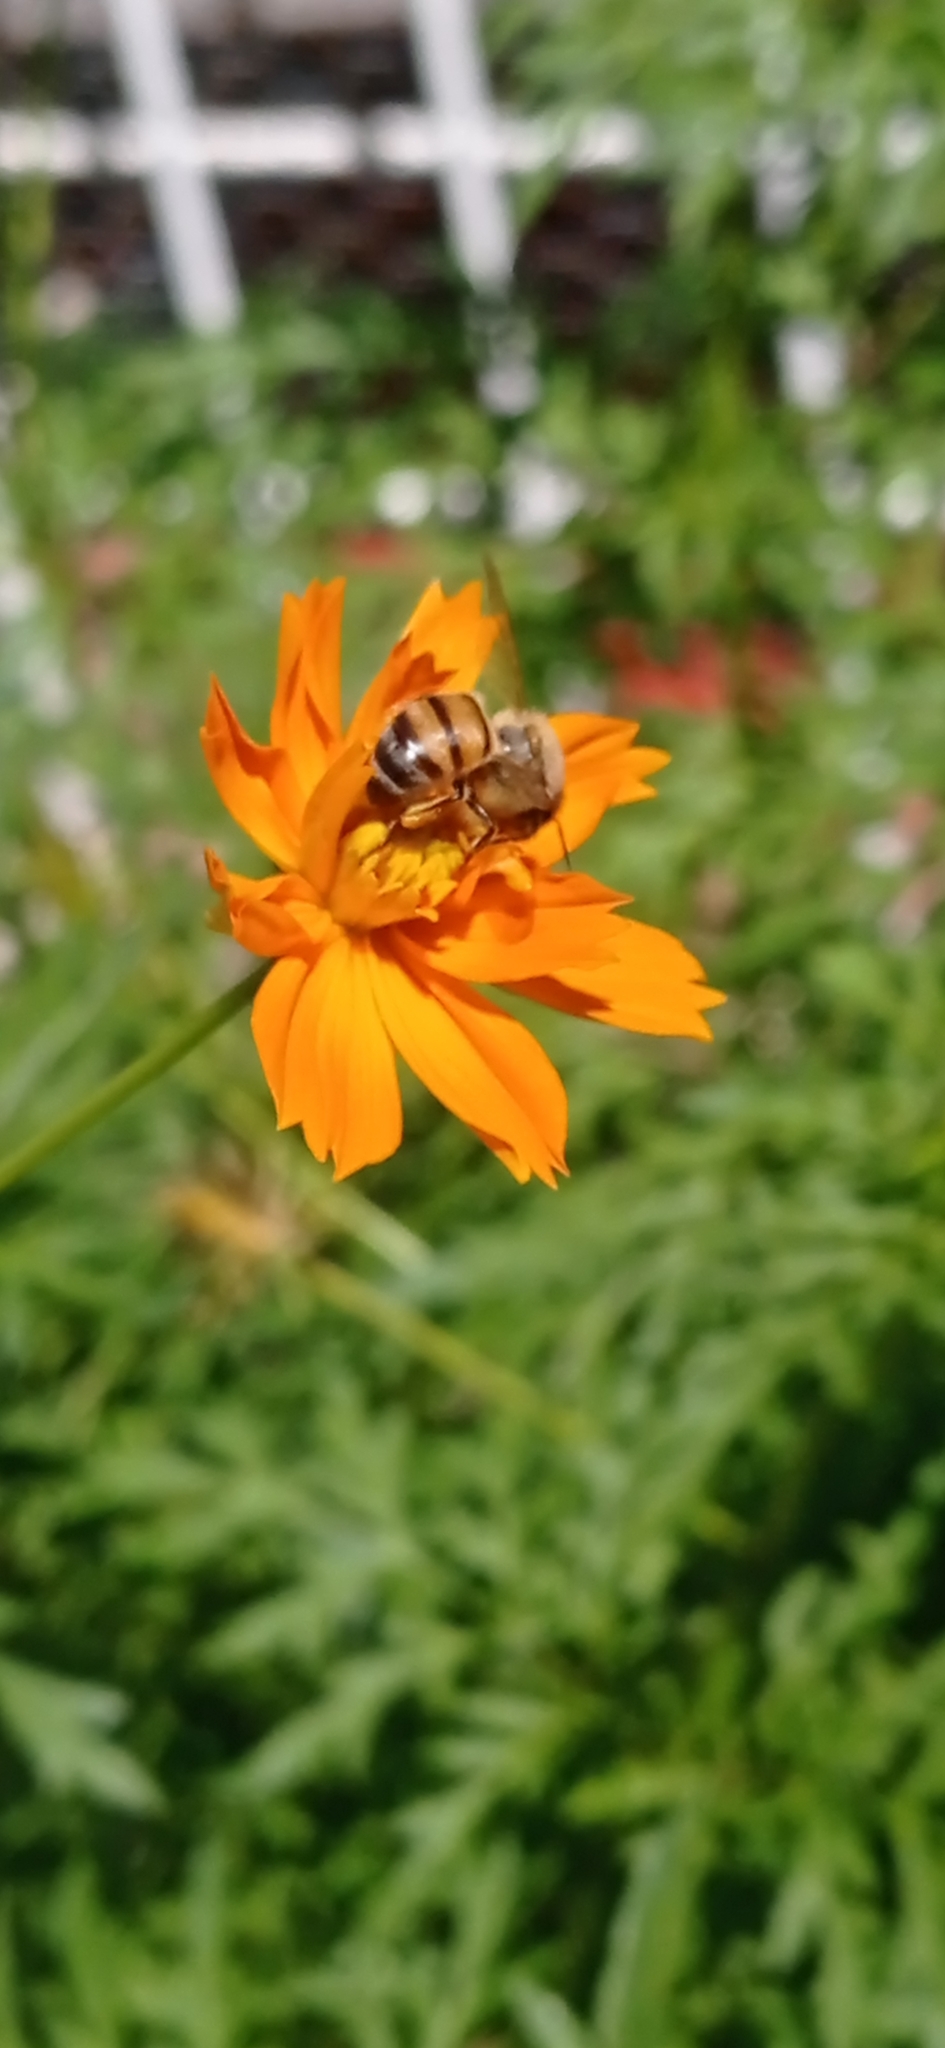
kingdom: Animalia
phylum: Arthropoda
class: Insecta
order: Hymenoptera
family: Apidae
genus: Apis
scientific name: Apis mellifera
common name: Honey bee
